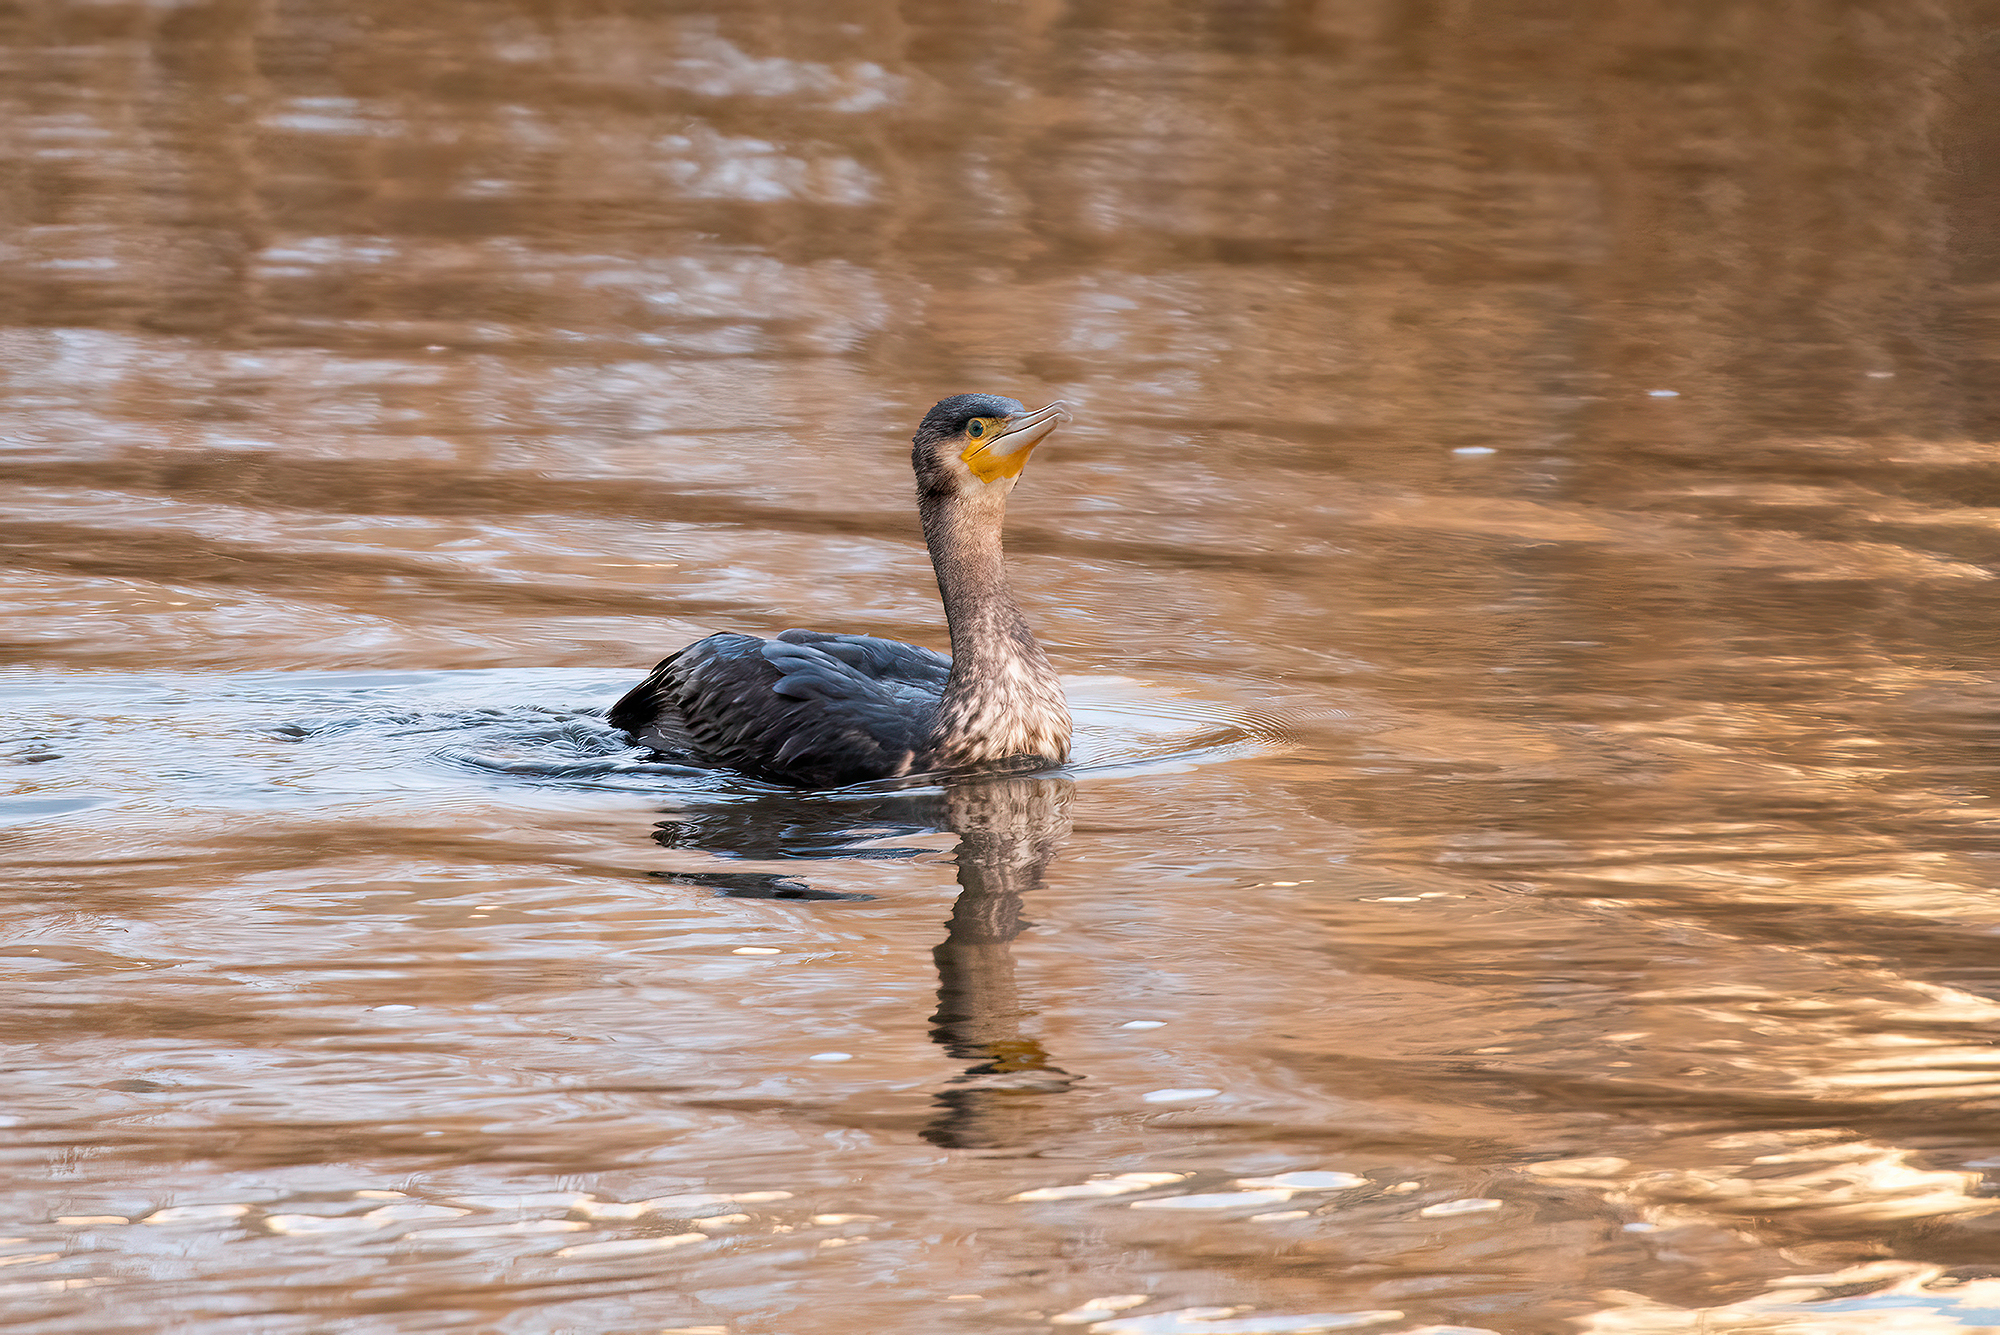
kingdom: Animalia
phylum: Chordata
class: Aves
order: Suliformes
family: Phalacrocoracidae
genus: Phalacrocorax
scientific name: Phalacrocorax carbo
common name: Great cormorant
